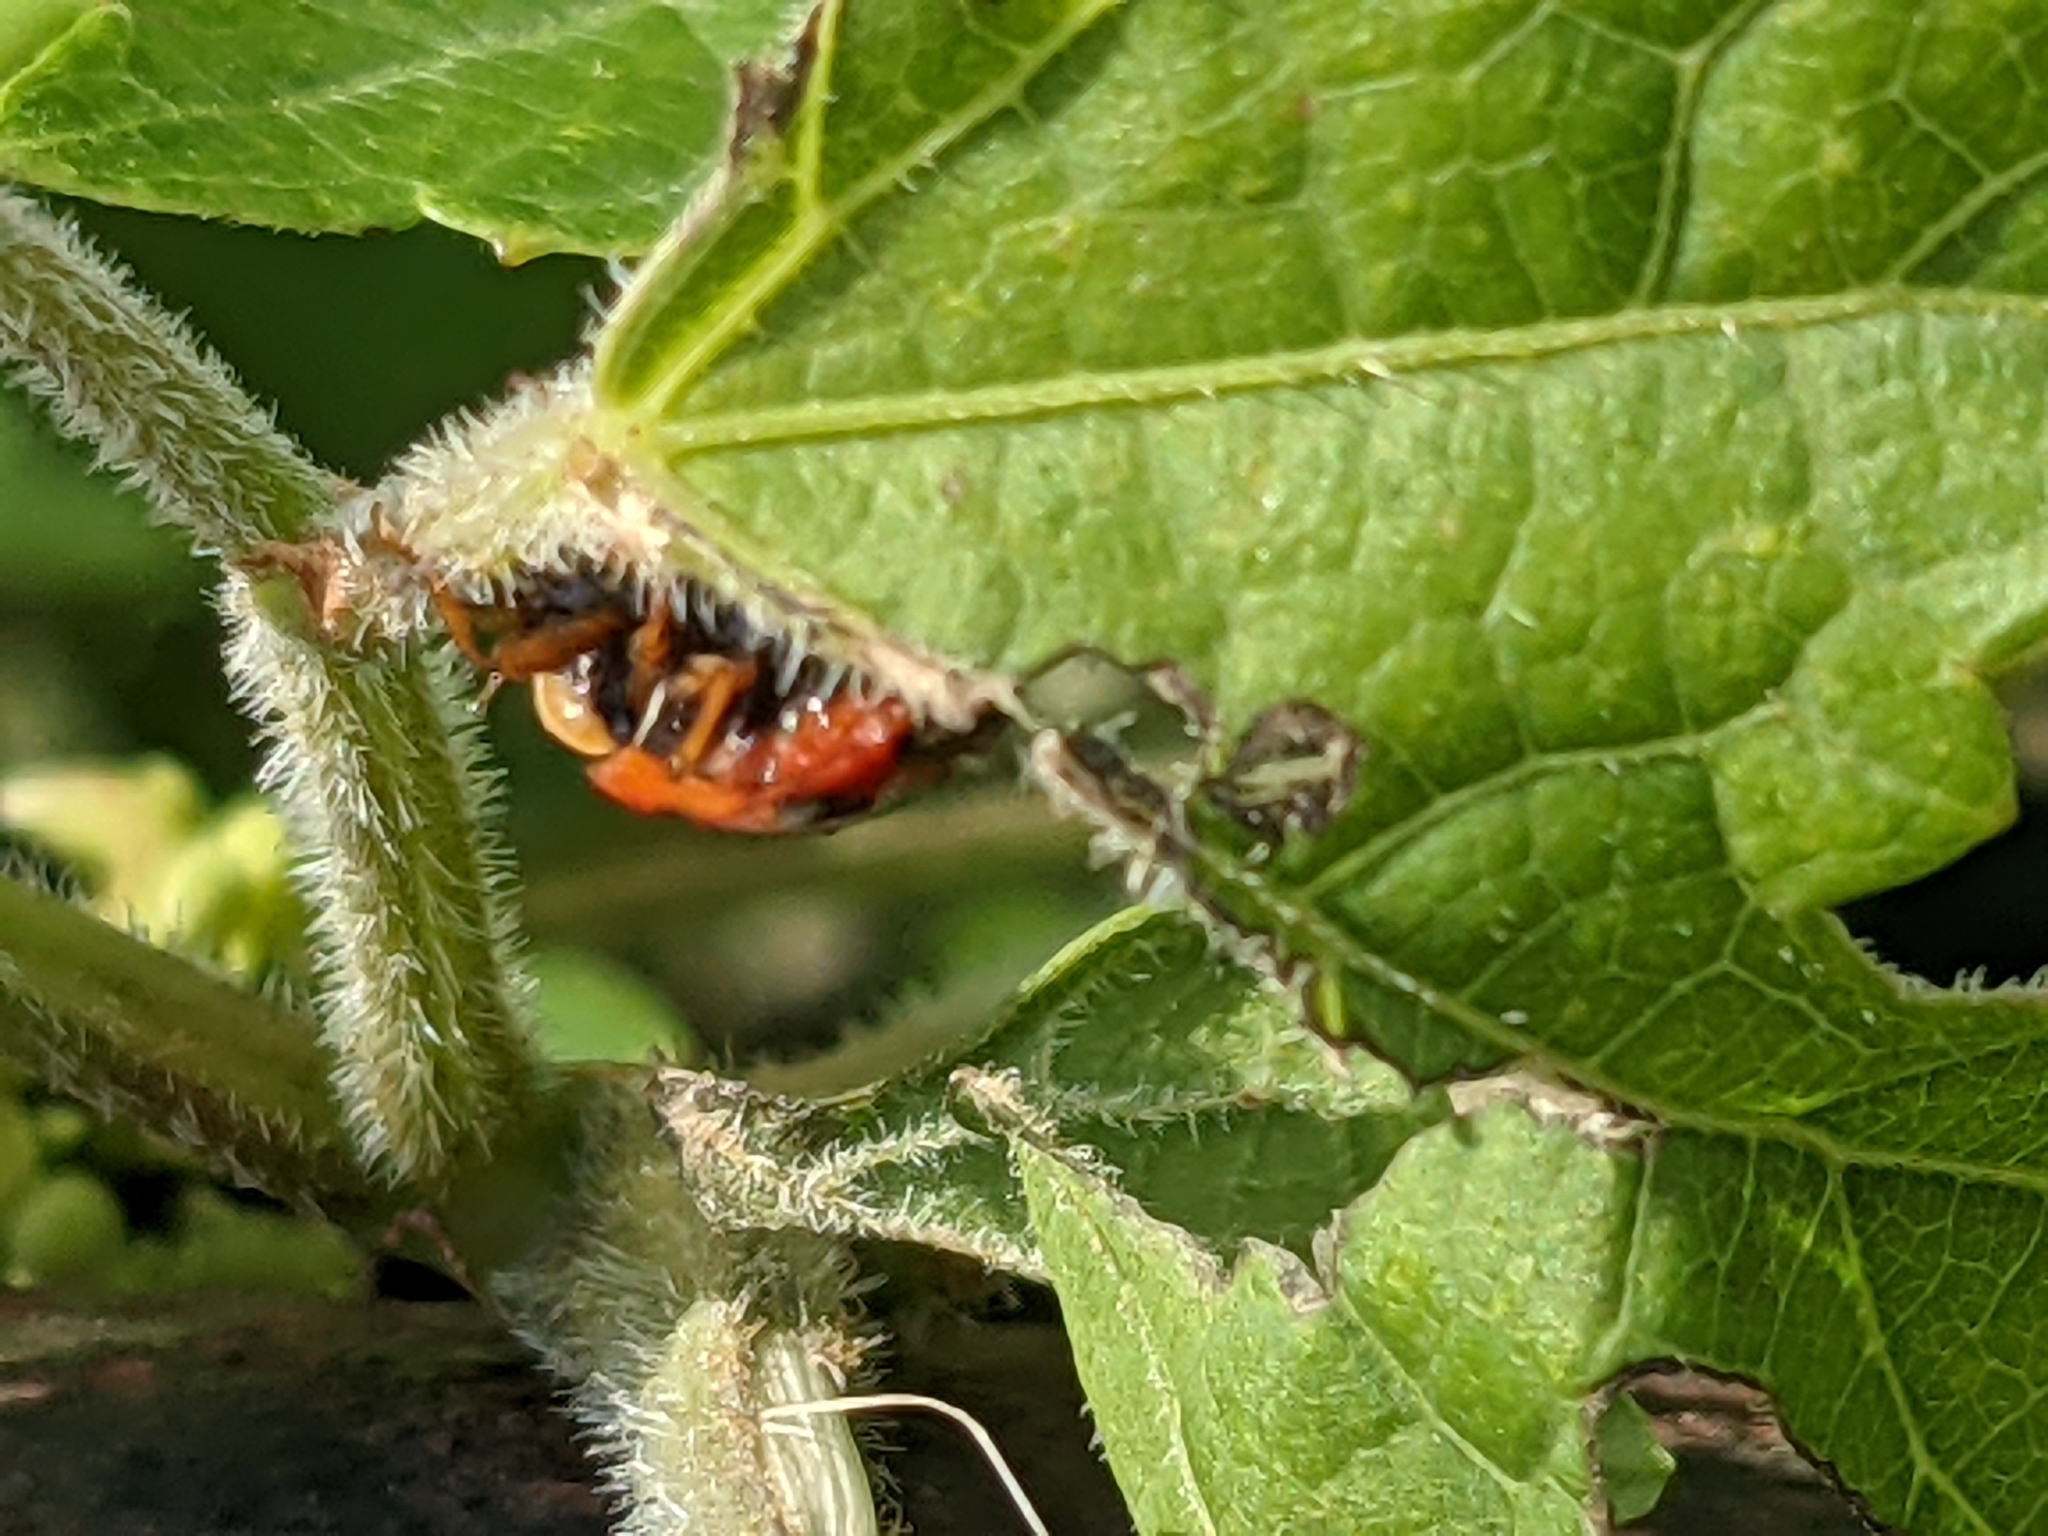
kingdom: Animalia
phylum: Arthropoda
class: Insecta
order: Coleoptera
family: Coccinellidae
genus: Harmonia
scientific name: Harmonia axyridis
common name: Harlequin ladybird
